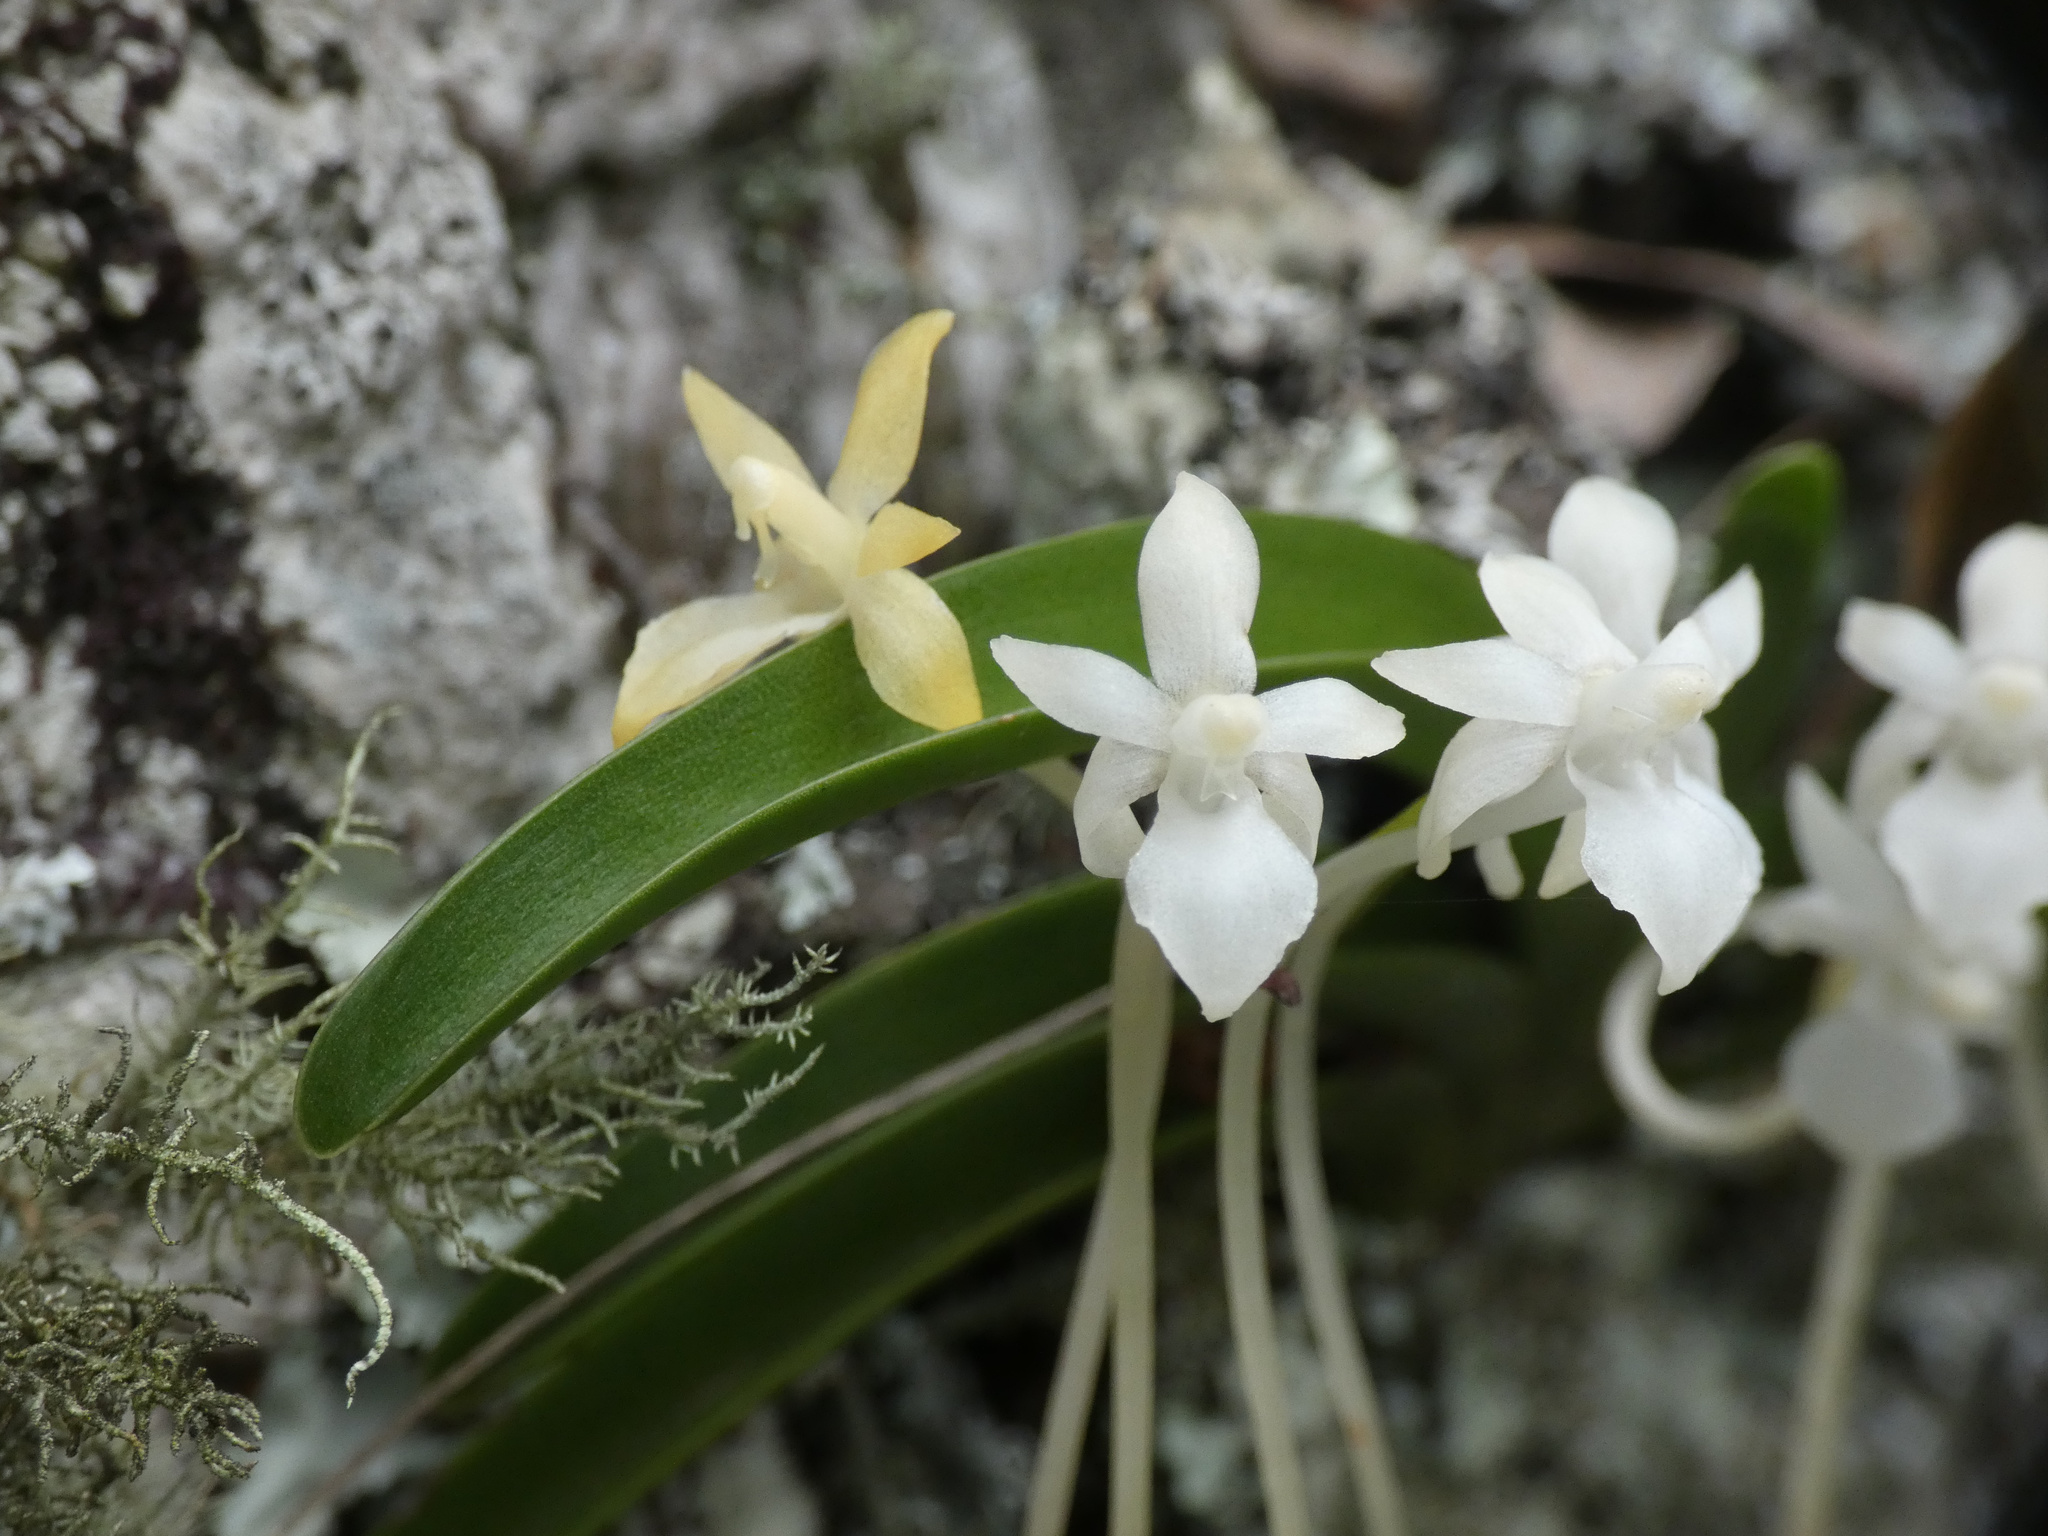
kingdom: Plantae
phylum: Tracheophyta
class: Liliopsida
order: Asparagales
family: Orchidaceae
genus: Rangaeris
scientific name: Rangaeris muscicola
